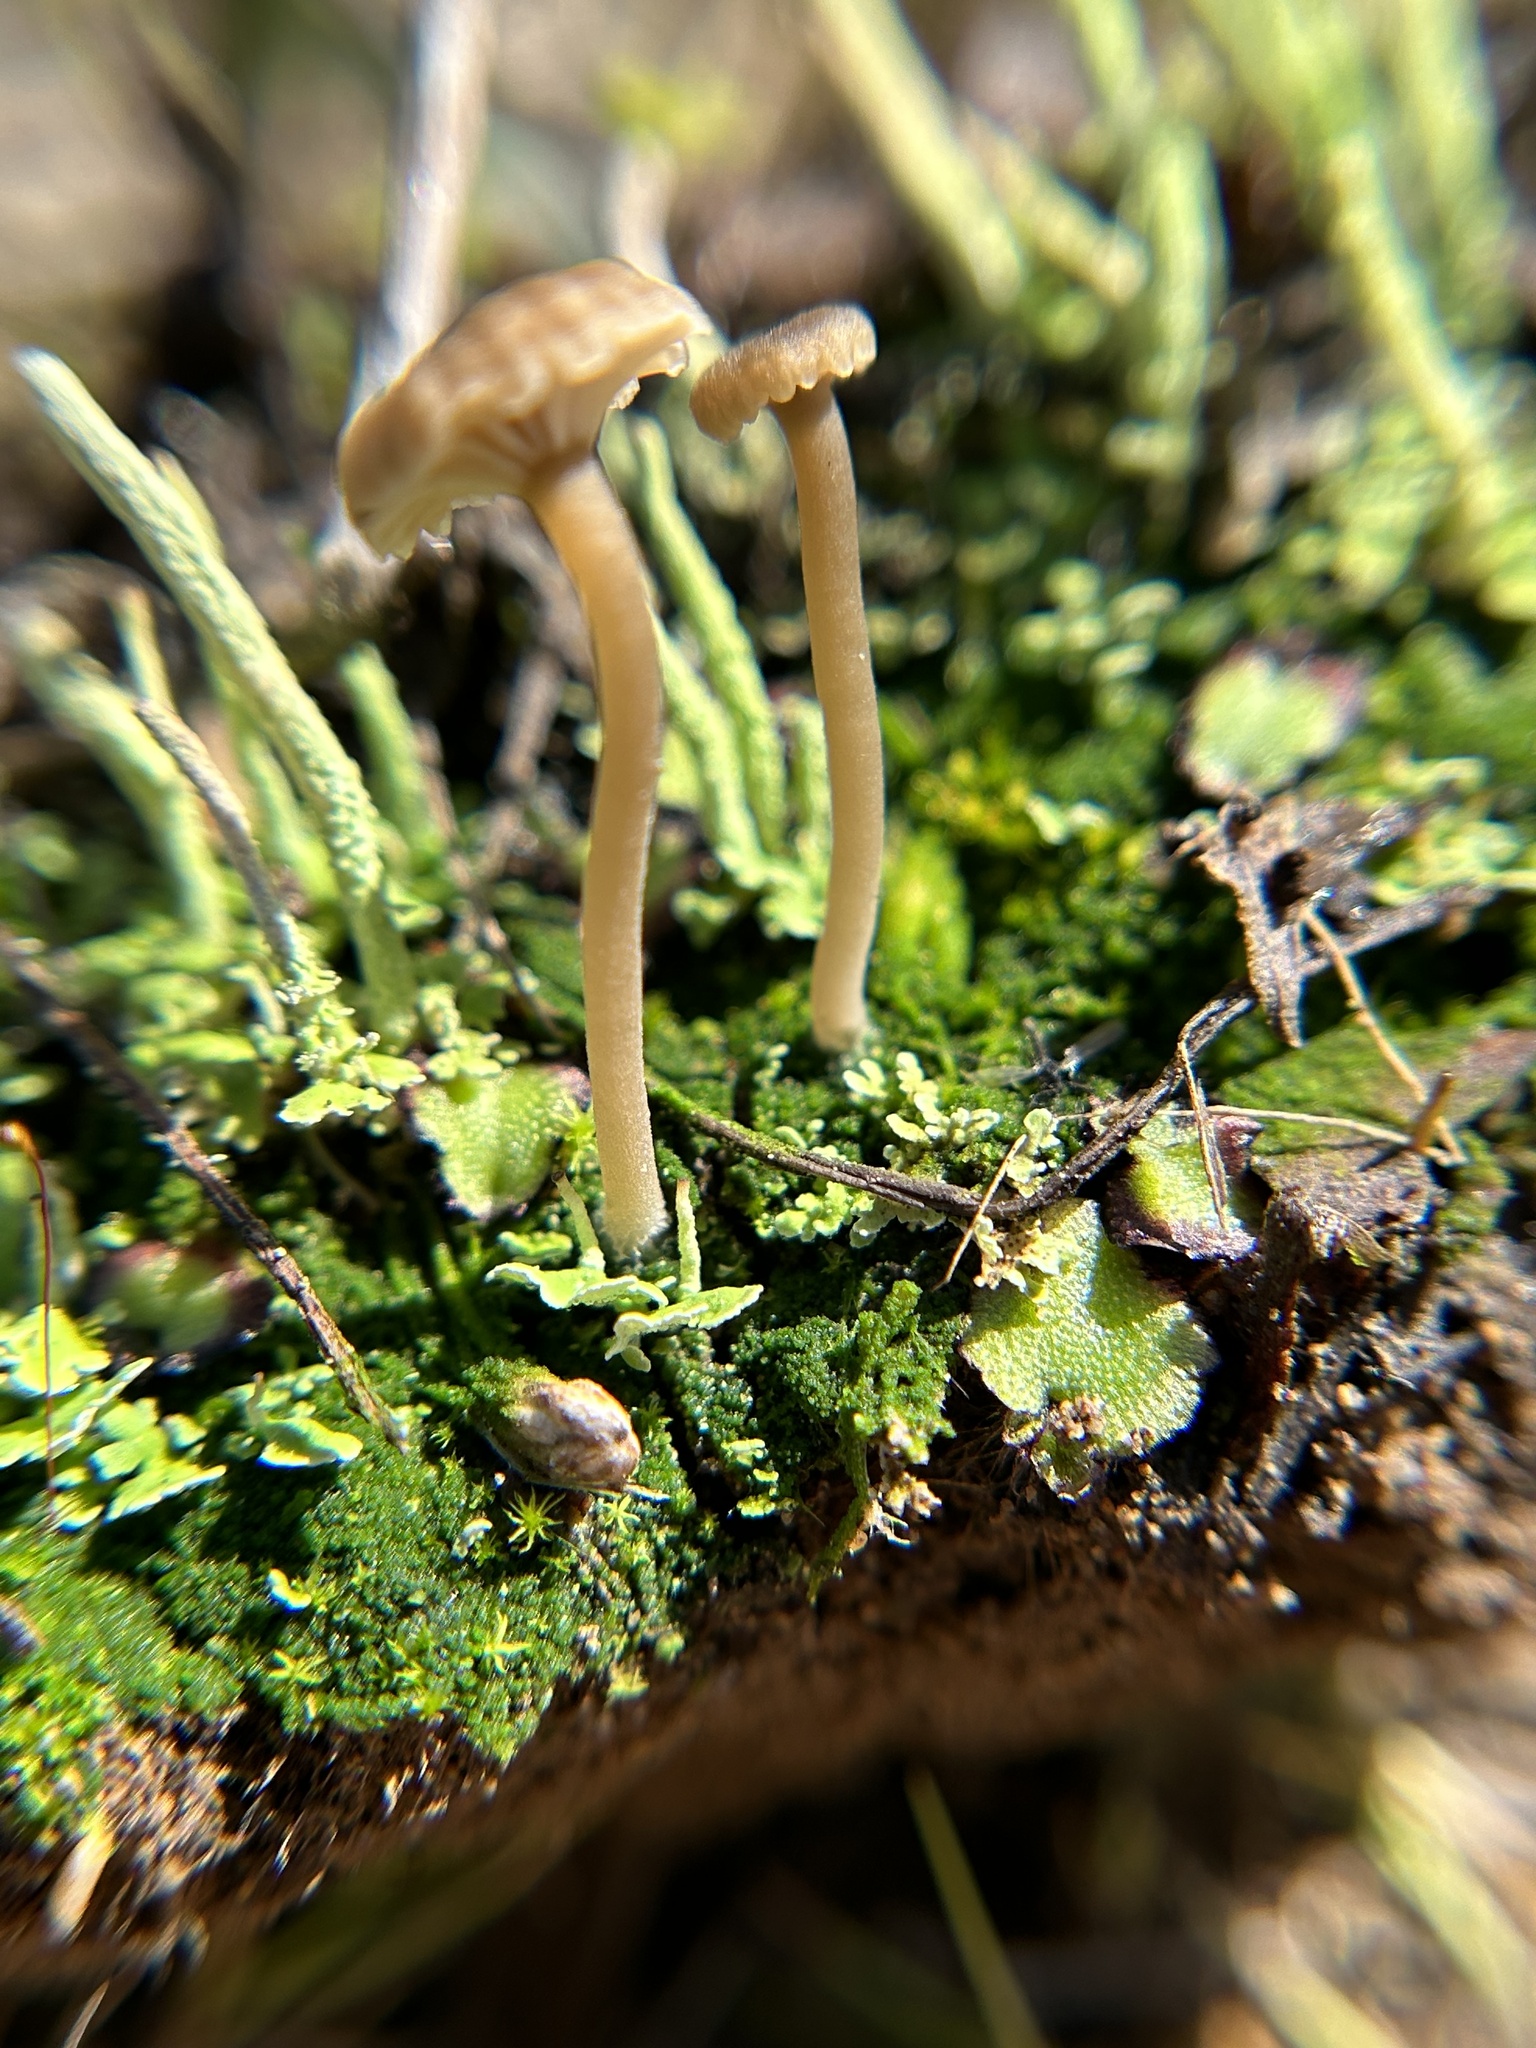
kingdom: Fungi
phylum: Basidiomycota
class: Agaricomycetes
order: Agaricales
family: Hygrophoraceae
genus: Lichenomphalia
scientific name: Lichenomphalia
